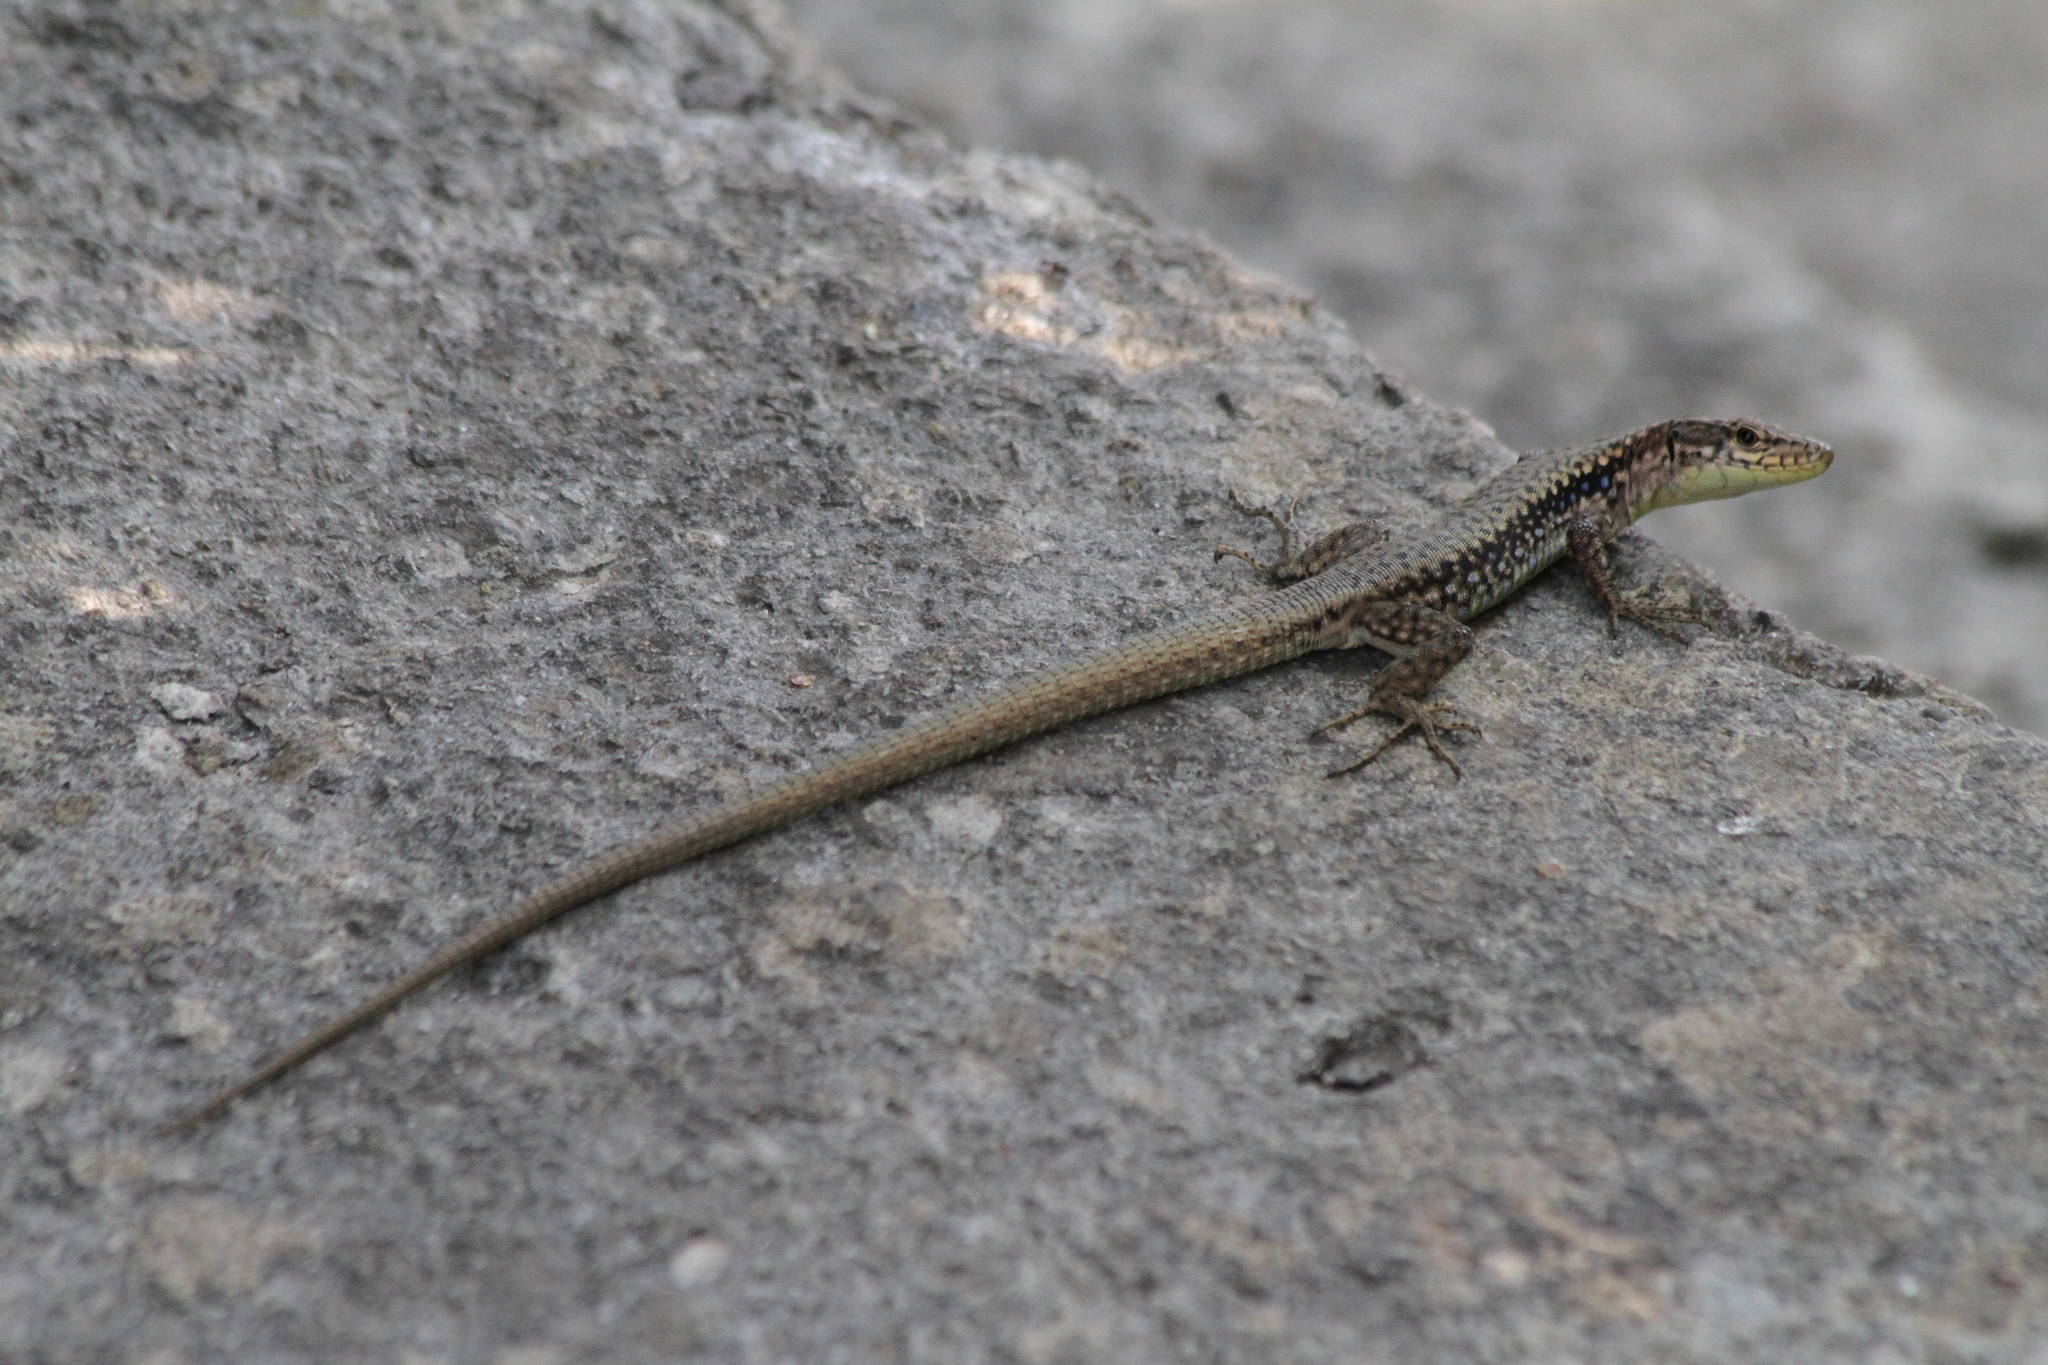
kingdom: Animalia
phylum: Chordata
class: Squamata
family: Lacertidae
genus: Darevskia
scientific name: Darevskia lindholmi
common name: Crimean rock lizard
